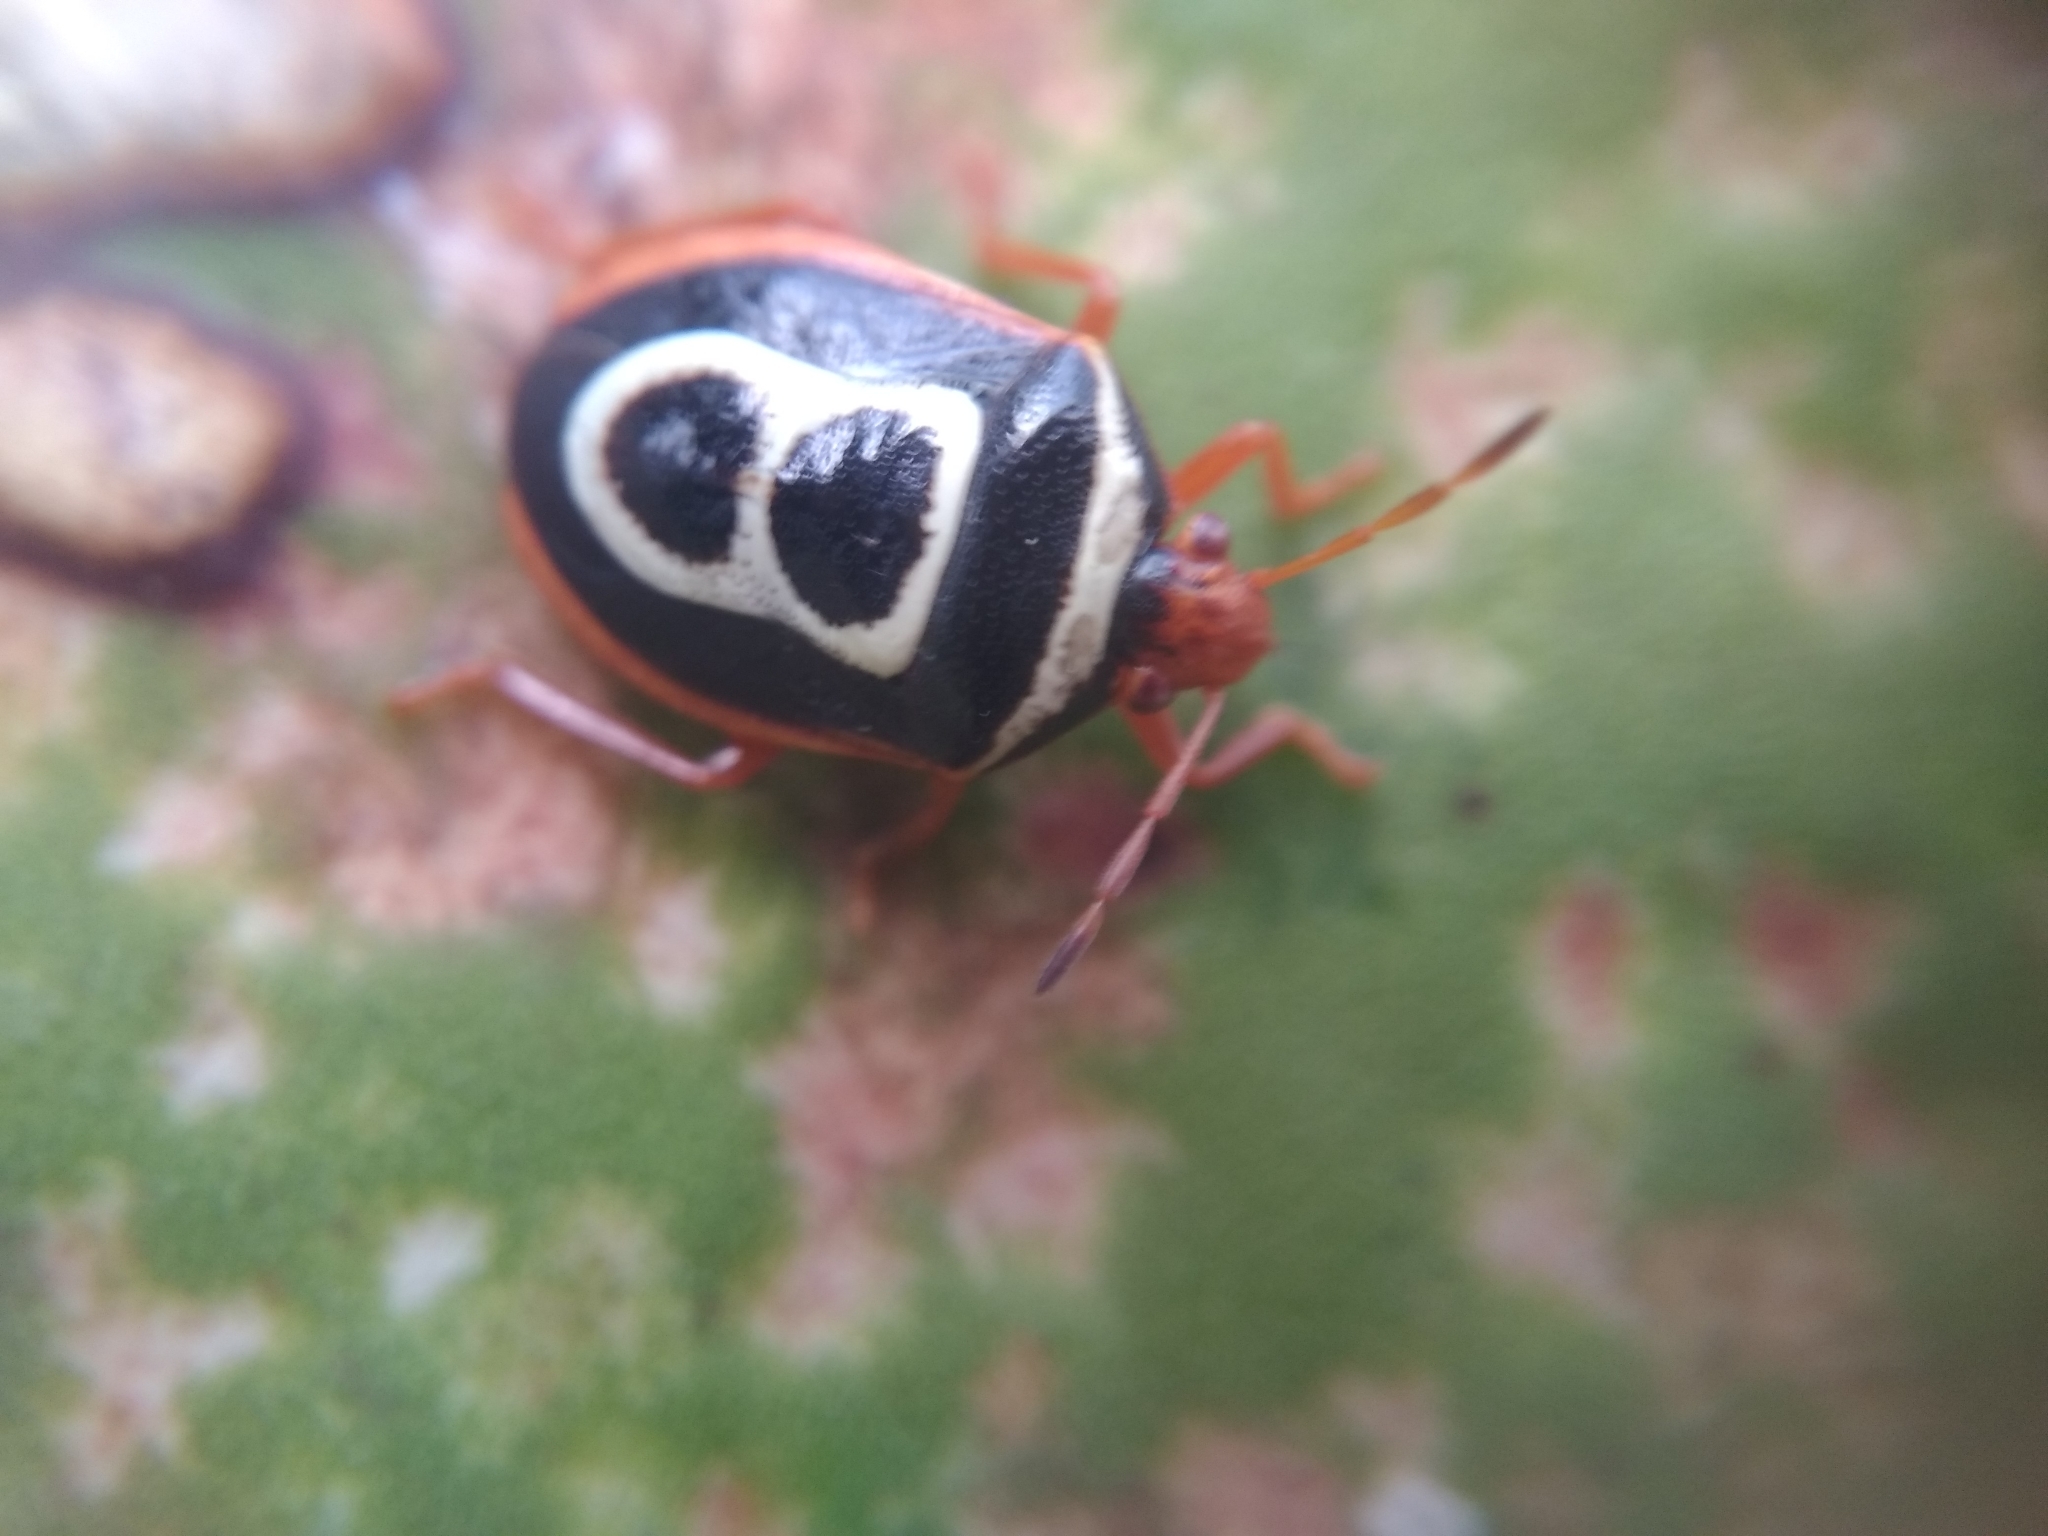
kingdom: Animalia
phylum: Arthropoda
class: Insecta
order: Hemiptera
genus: Flaminia
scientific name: Flaminia
